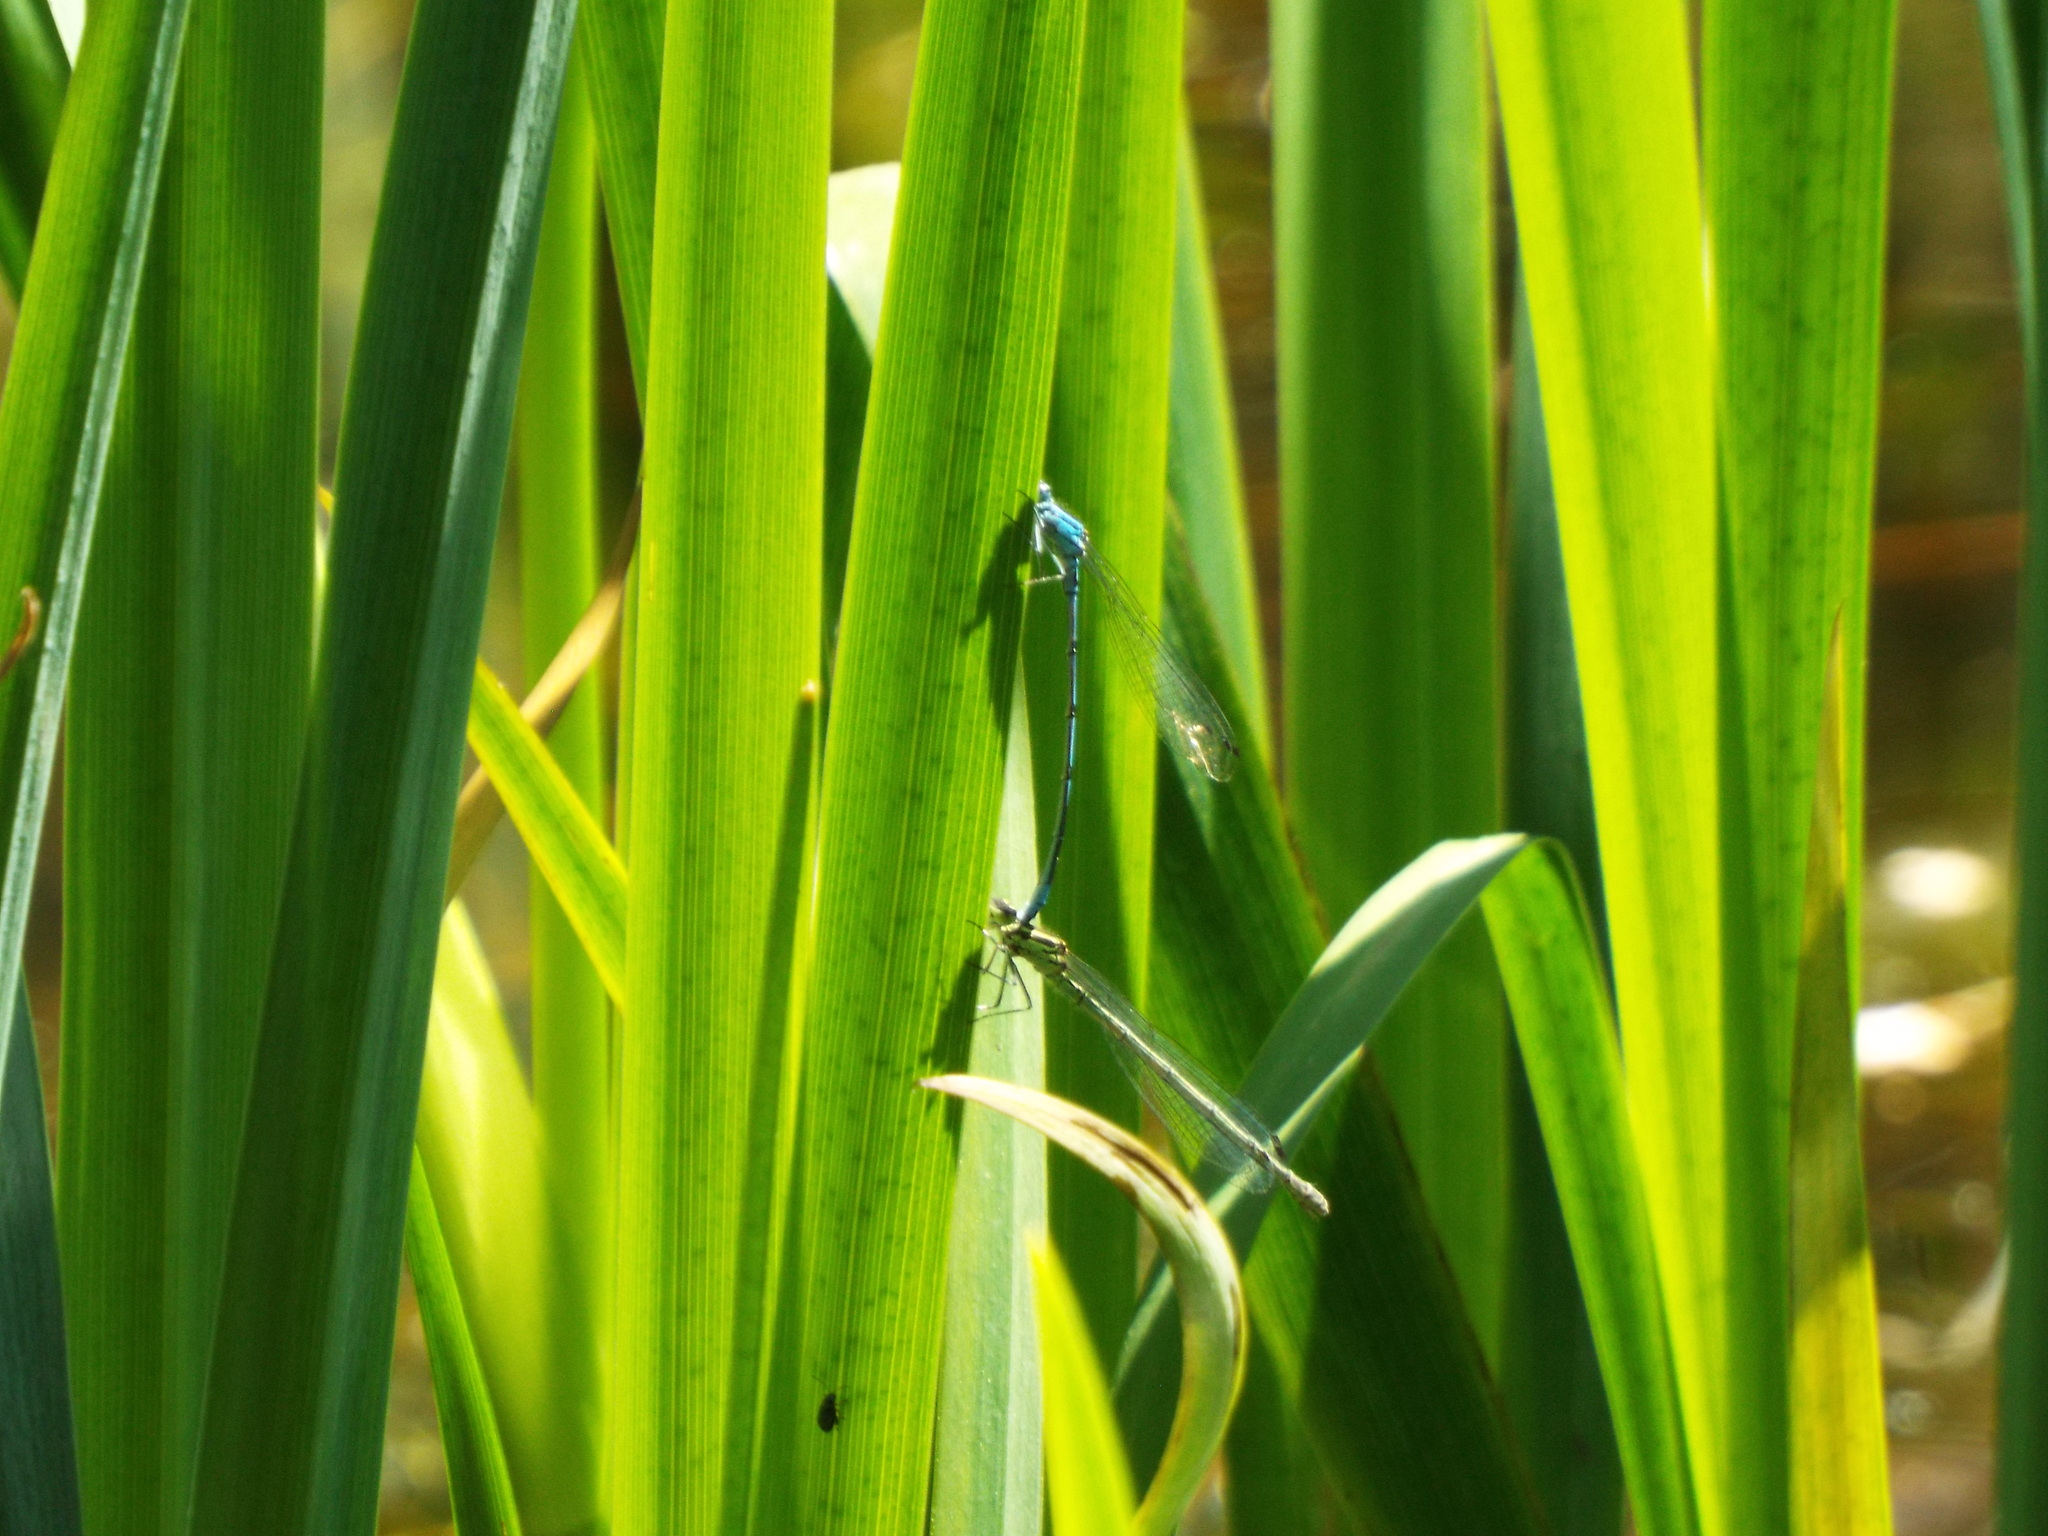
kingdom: Animalia
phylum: Arthropoda
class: Insecta
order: Odonata
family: Coenagrionidae
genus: Coenagrion
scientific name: Coenagrion puella
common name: Azure damselfly
